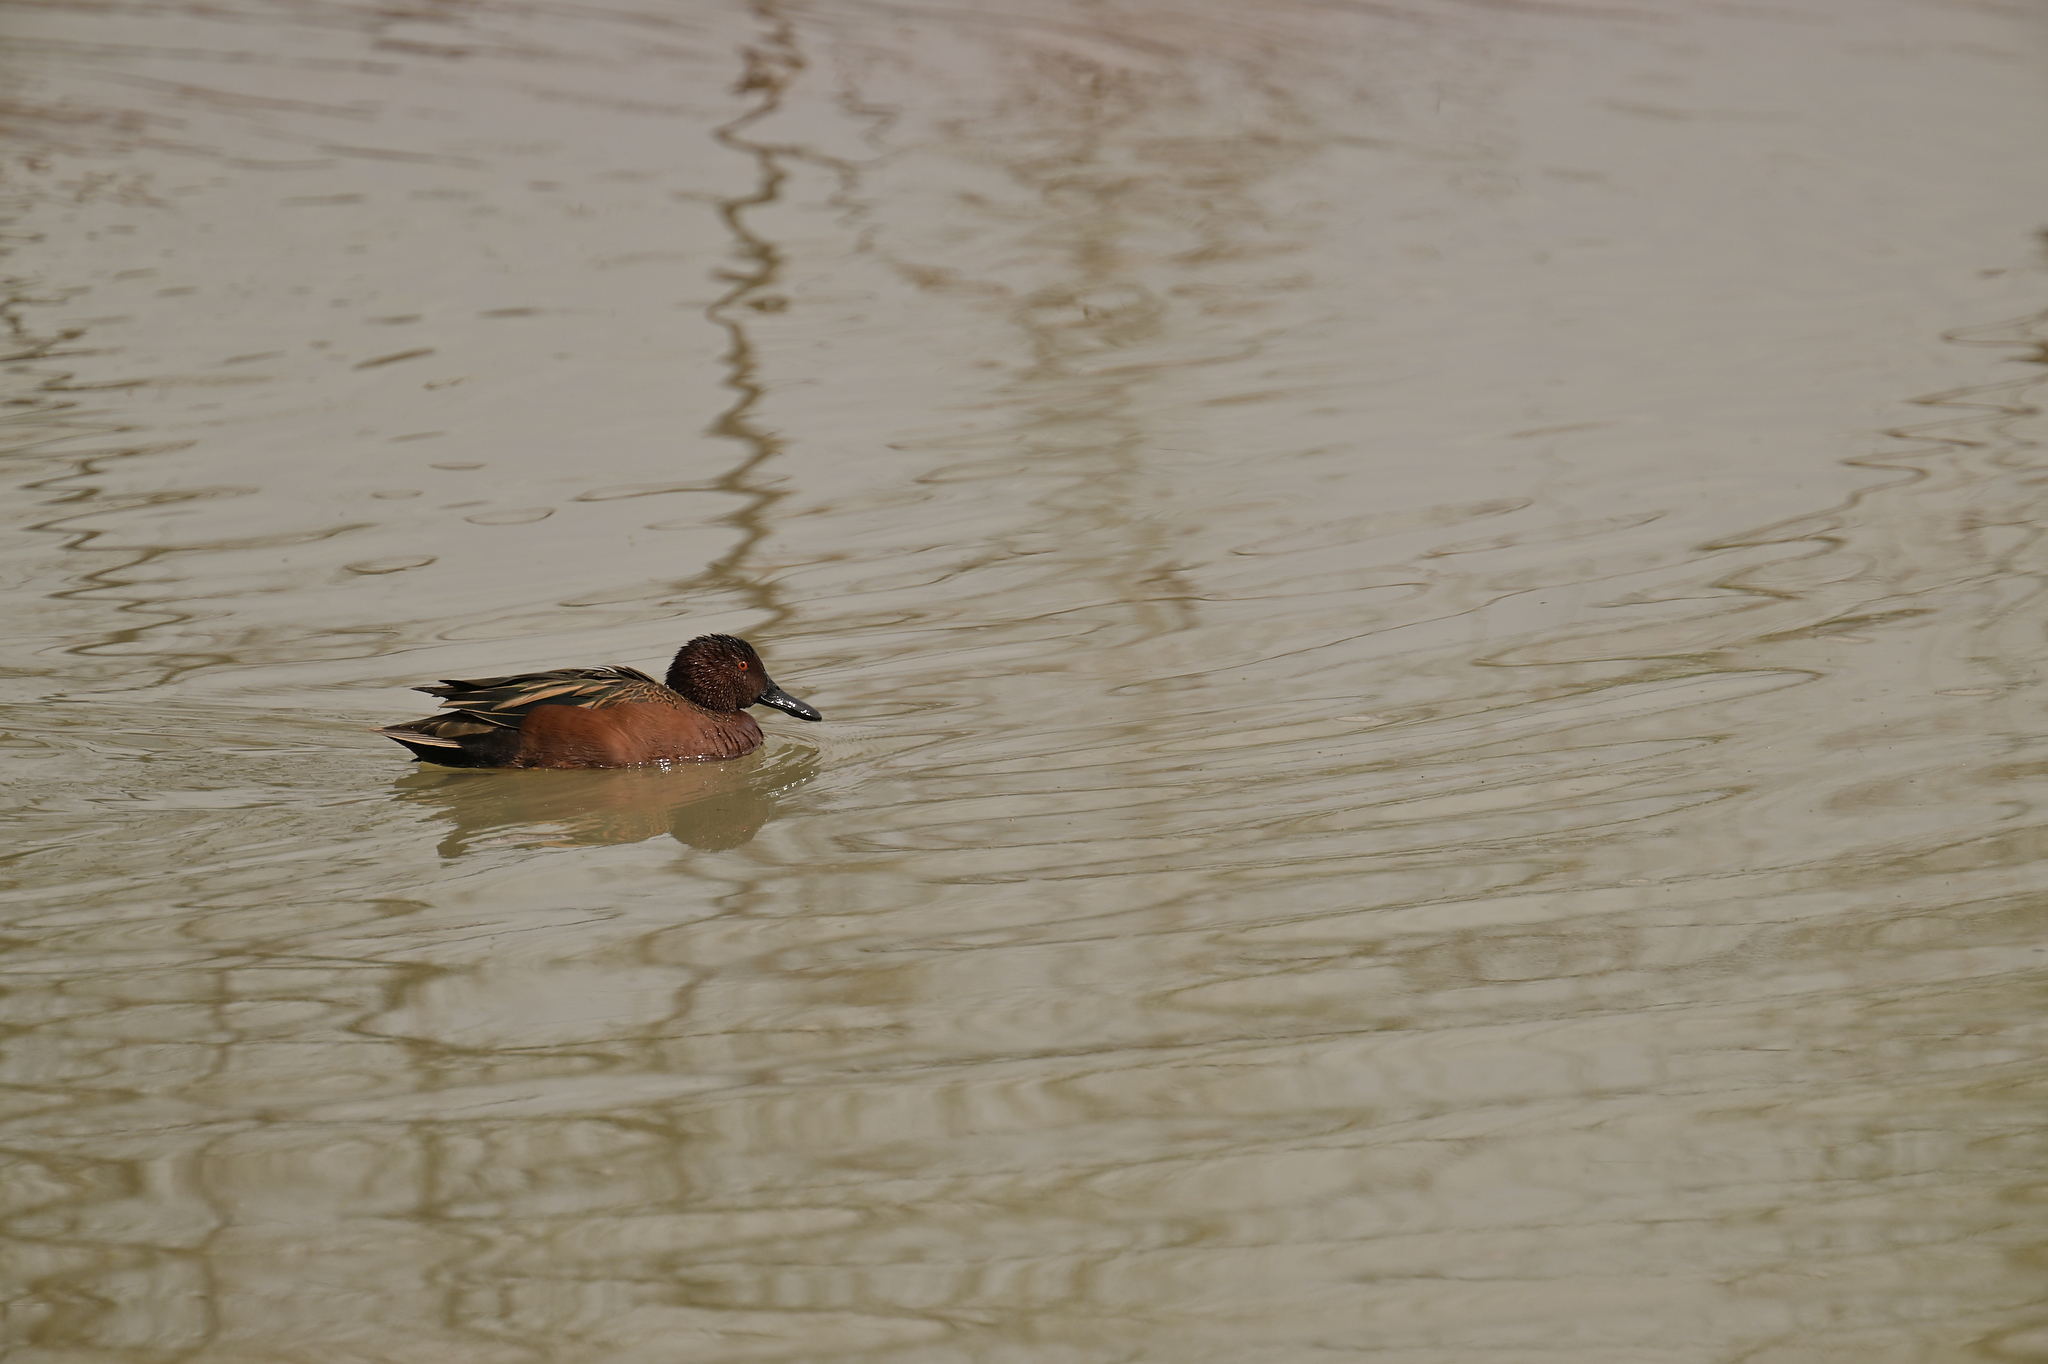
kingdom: Animalia
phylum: Chordata
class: Aves
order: Anseriformes
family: Anatidae
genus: Spatula
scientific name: Spatula cyanoptera
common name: Cinnamon teal
